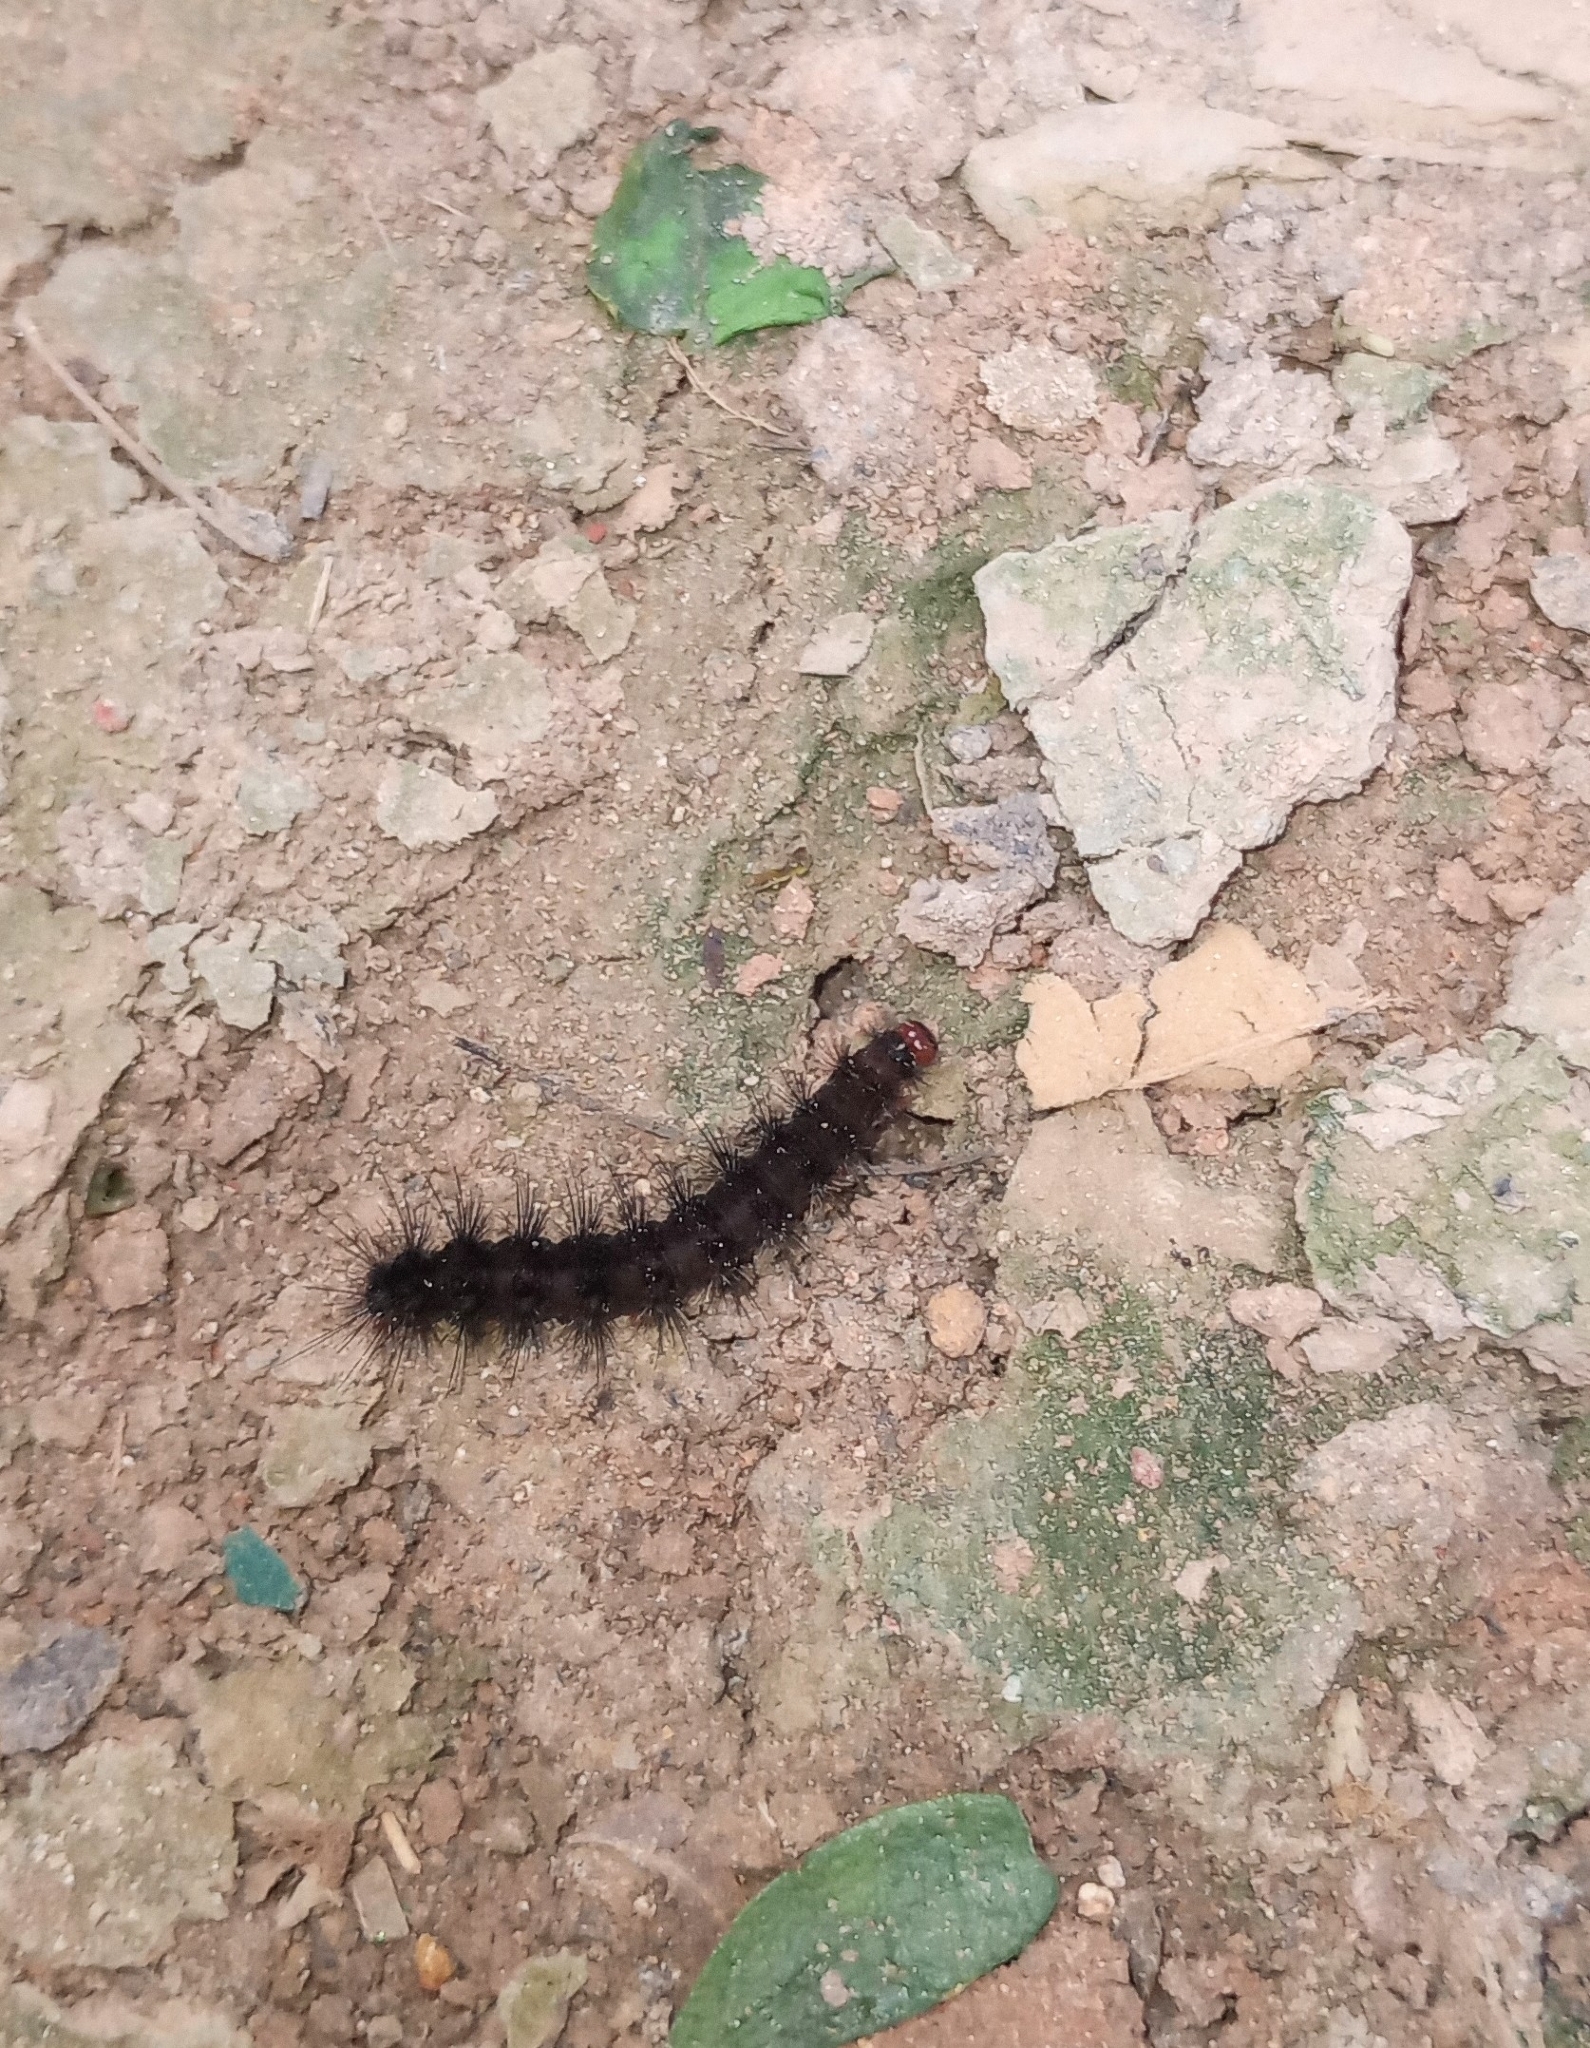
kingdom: Animalia
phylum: Arthropoda
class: Insecta
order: Lepidoptera
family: Erebidae
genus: Amata
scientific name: Amata passalis
